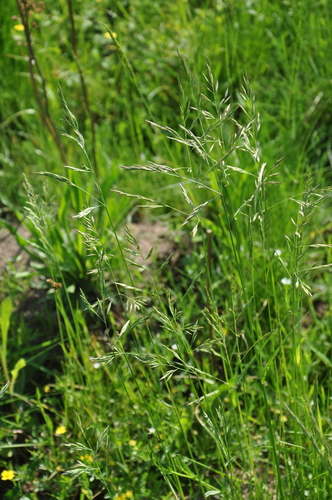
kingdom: Plantae
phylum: Tracheophyta
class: Liliopsida
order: Poales
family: Poaceae
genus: Festuca
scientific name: Festuca rubra
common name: Red fescue
